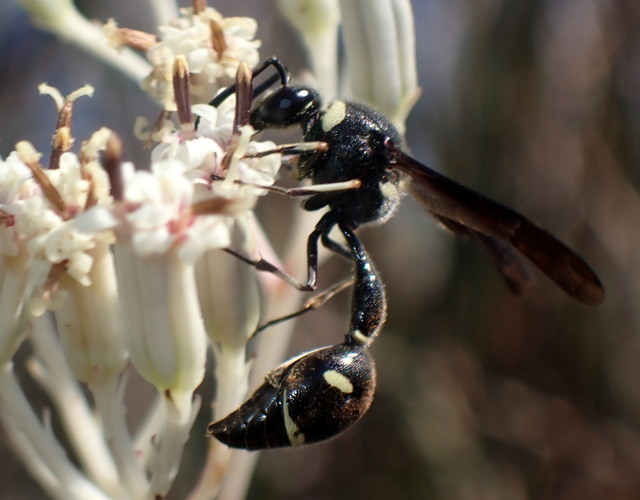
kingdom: Animalia
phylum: Arthropoda
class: Insecta
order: Hymenoptera
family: Vespidae
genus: Eumenes
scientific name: Eumenes fraternus
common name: Fraternal potter wasp
